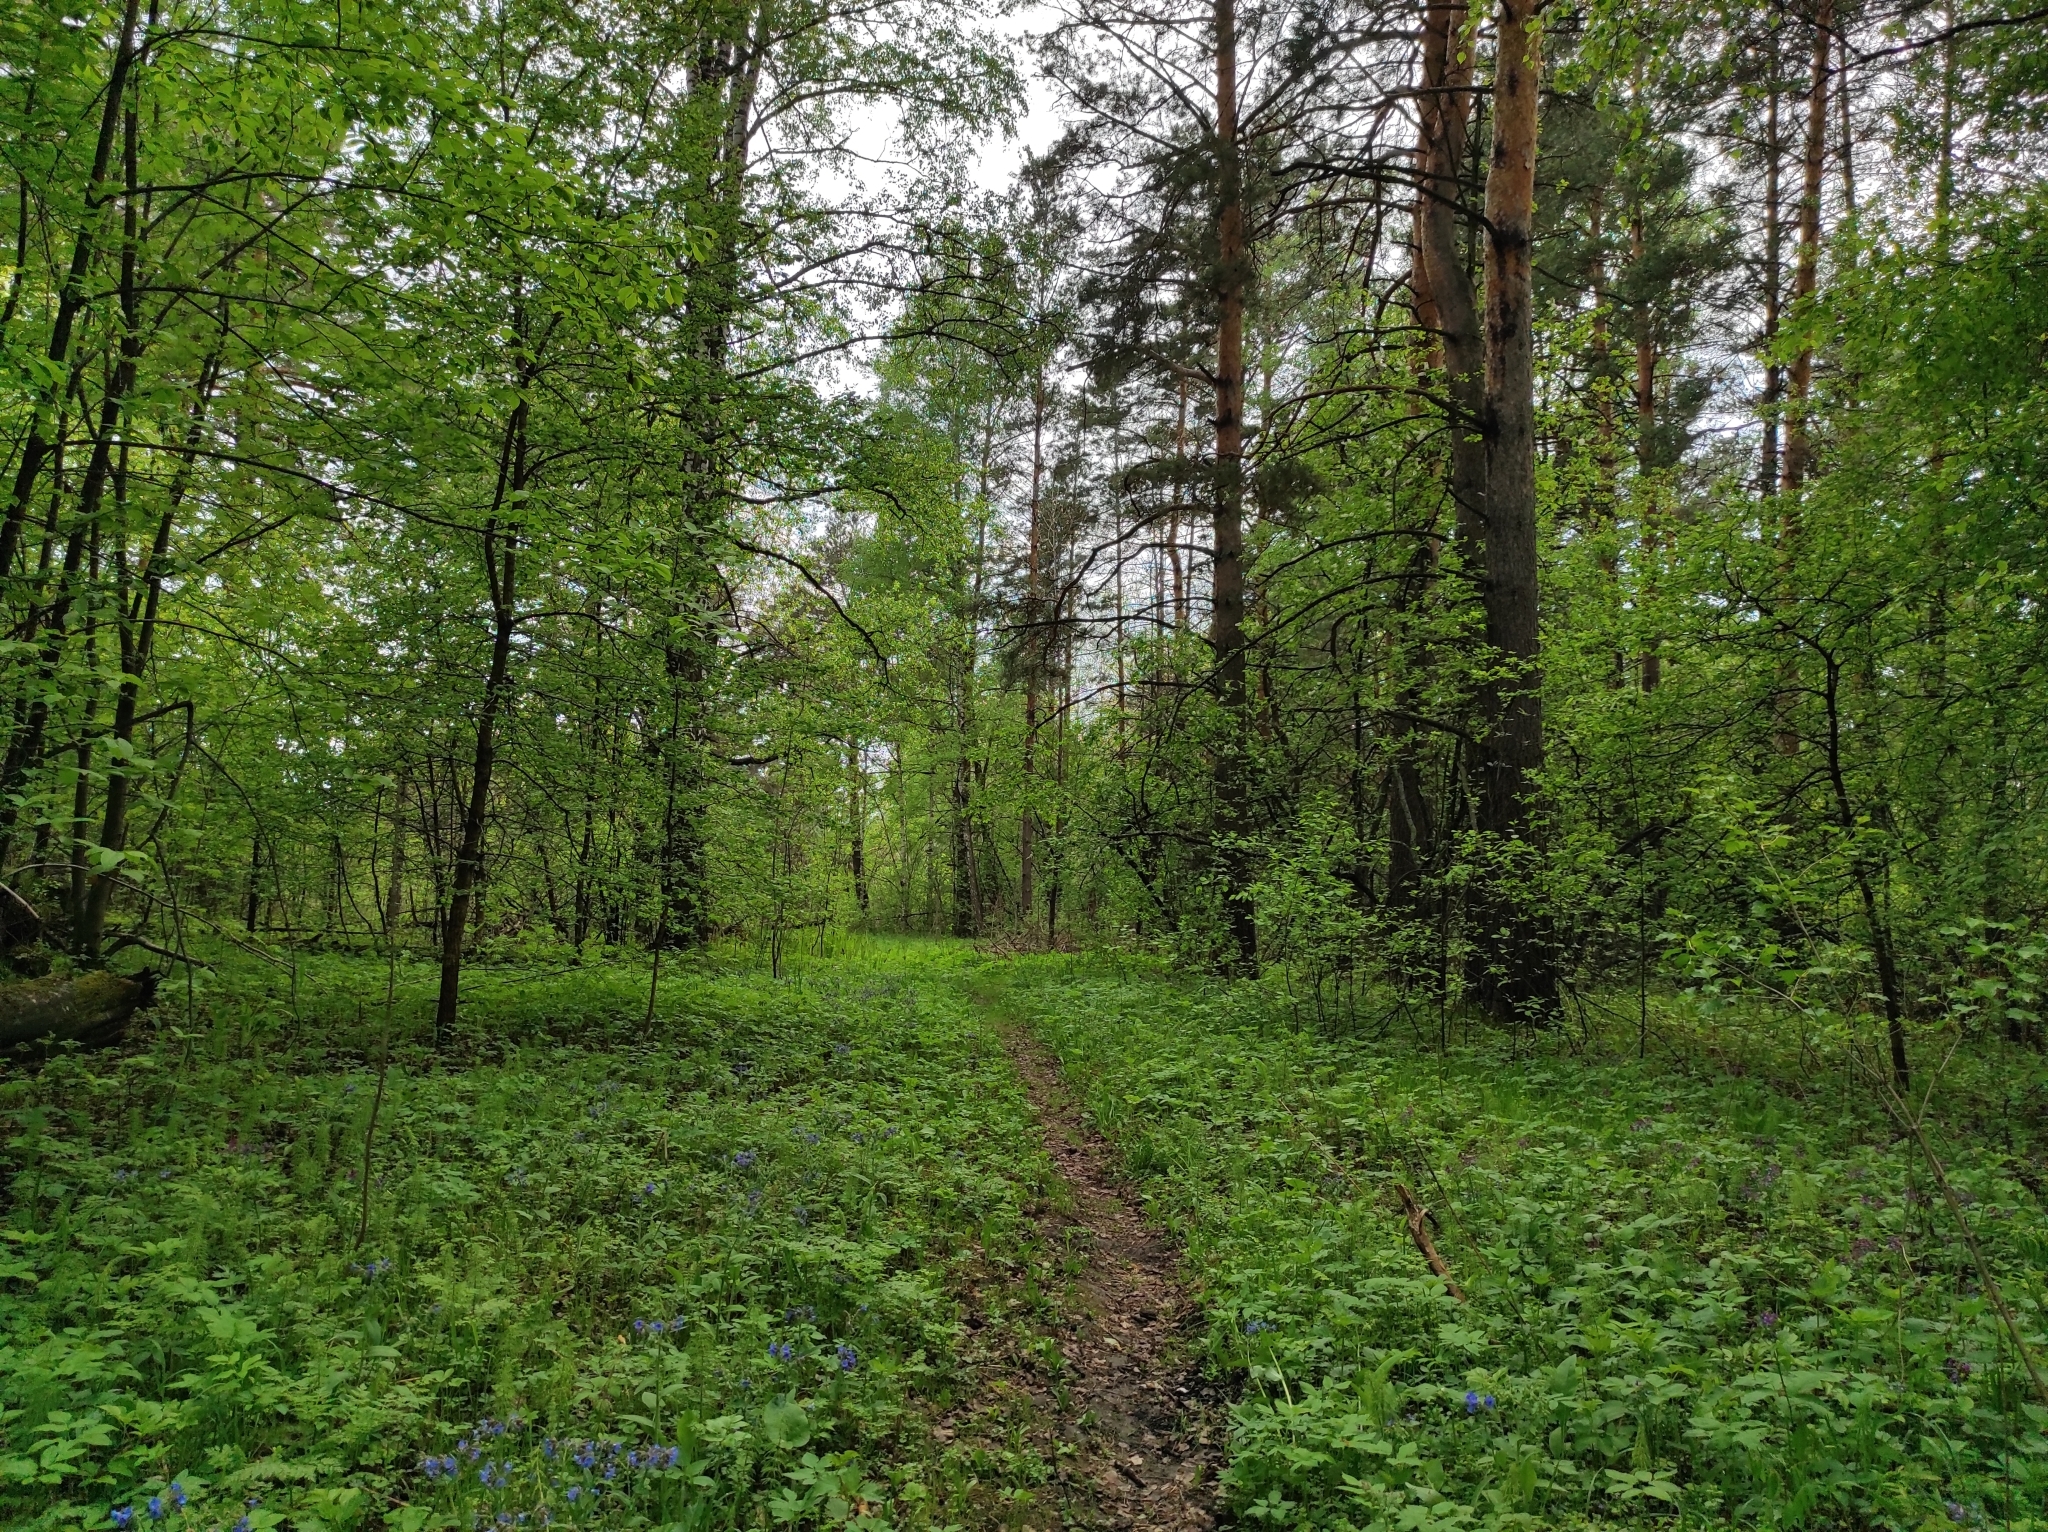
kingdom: Plantae
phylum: Tracheophyta
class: Pinopsida
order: Pinales
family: Pinaceae
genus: Pinus
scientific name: Pinus sylvestris
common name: Scots pine
